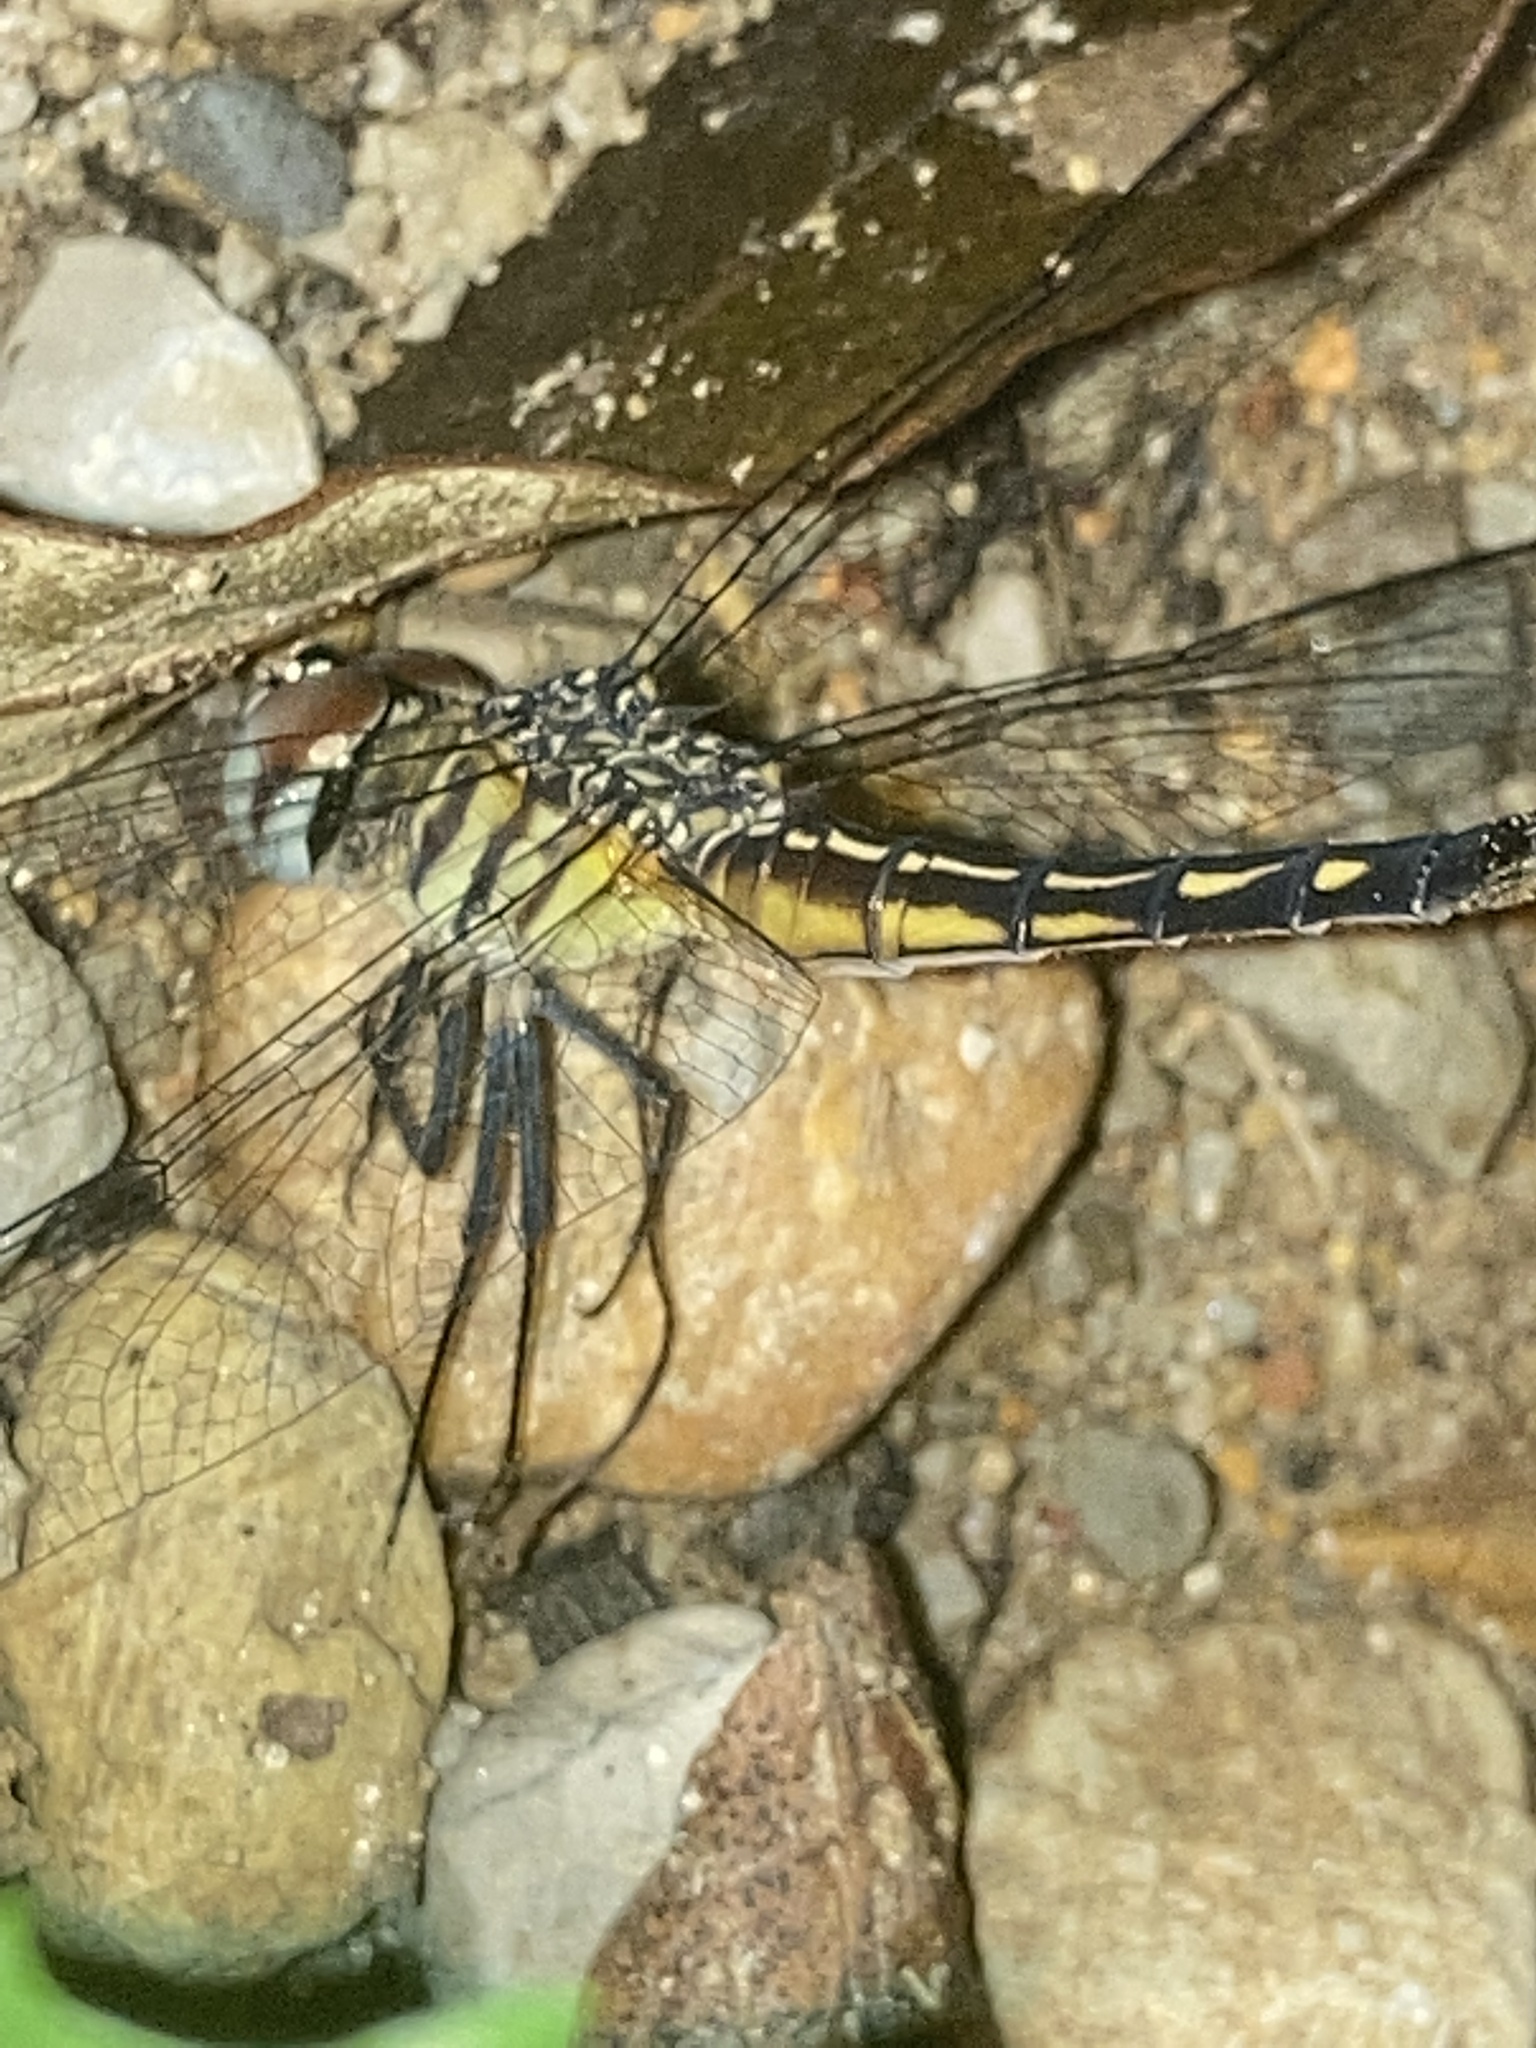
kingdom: Animalia
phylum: Arthropoda
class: Insecta
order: Odonata
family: Libellulidae
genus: Pachydiplax
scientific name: Pachydiplax longipennis
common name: Blue dasher
